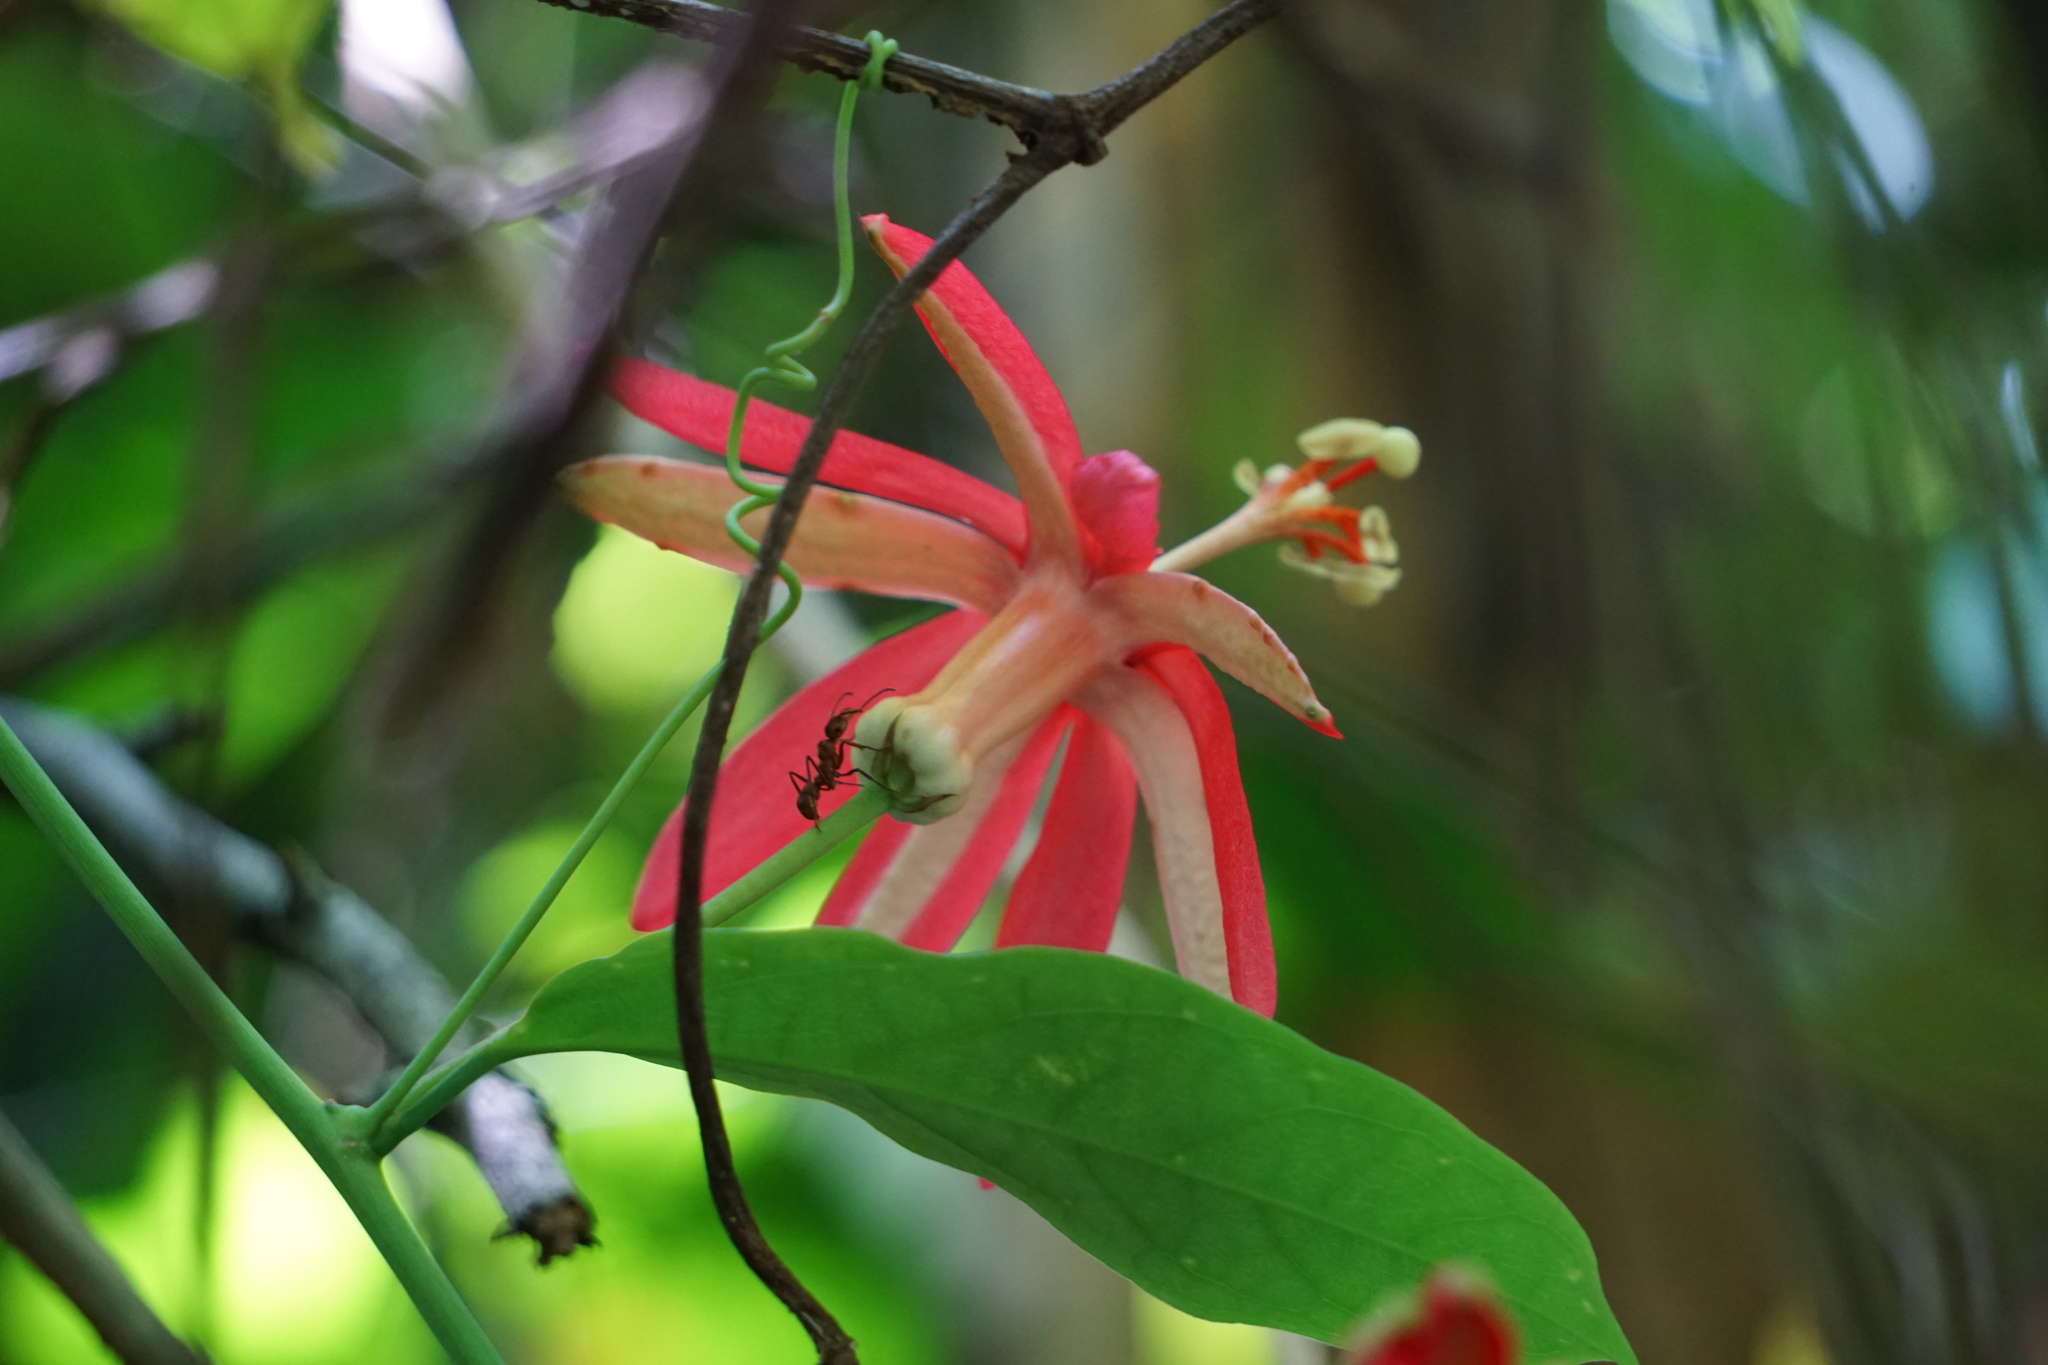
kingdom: Plantae
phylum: Tracheophyta
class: Magnoliopsida
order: Malpighiales
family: Passifloraceae
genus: Passiflora
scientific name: Passiflora glandulosa
